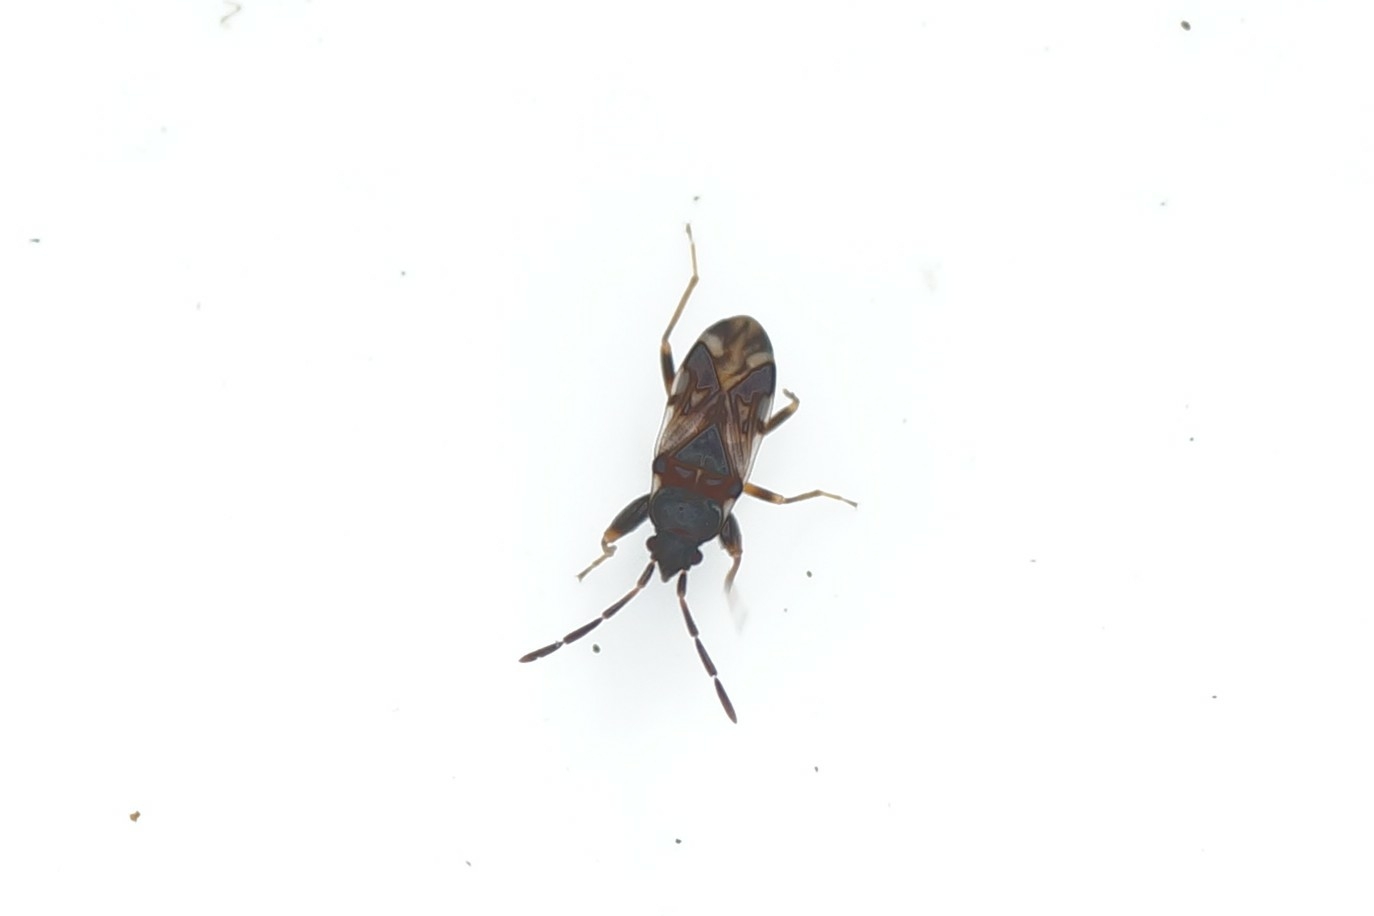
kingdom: Animalia
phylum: Arthropoda
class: Insecta
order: Hemiptera
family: Rhyparochromidae
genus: Scolopostethus
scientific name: Scolopostethus decoratus
